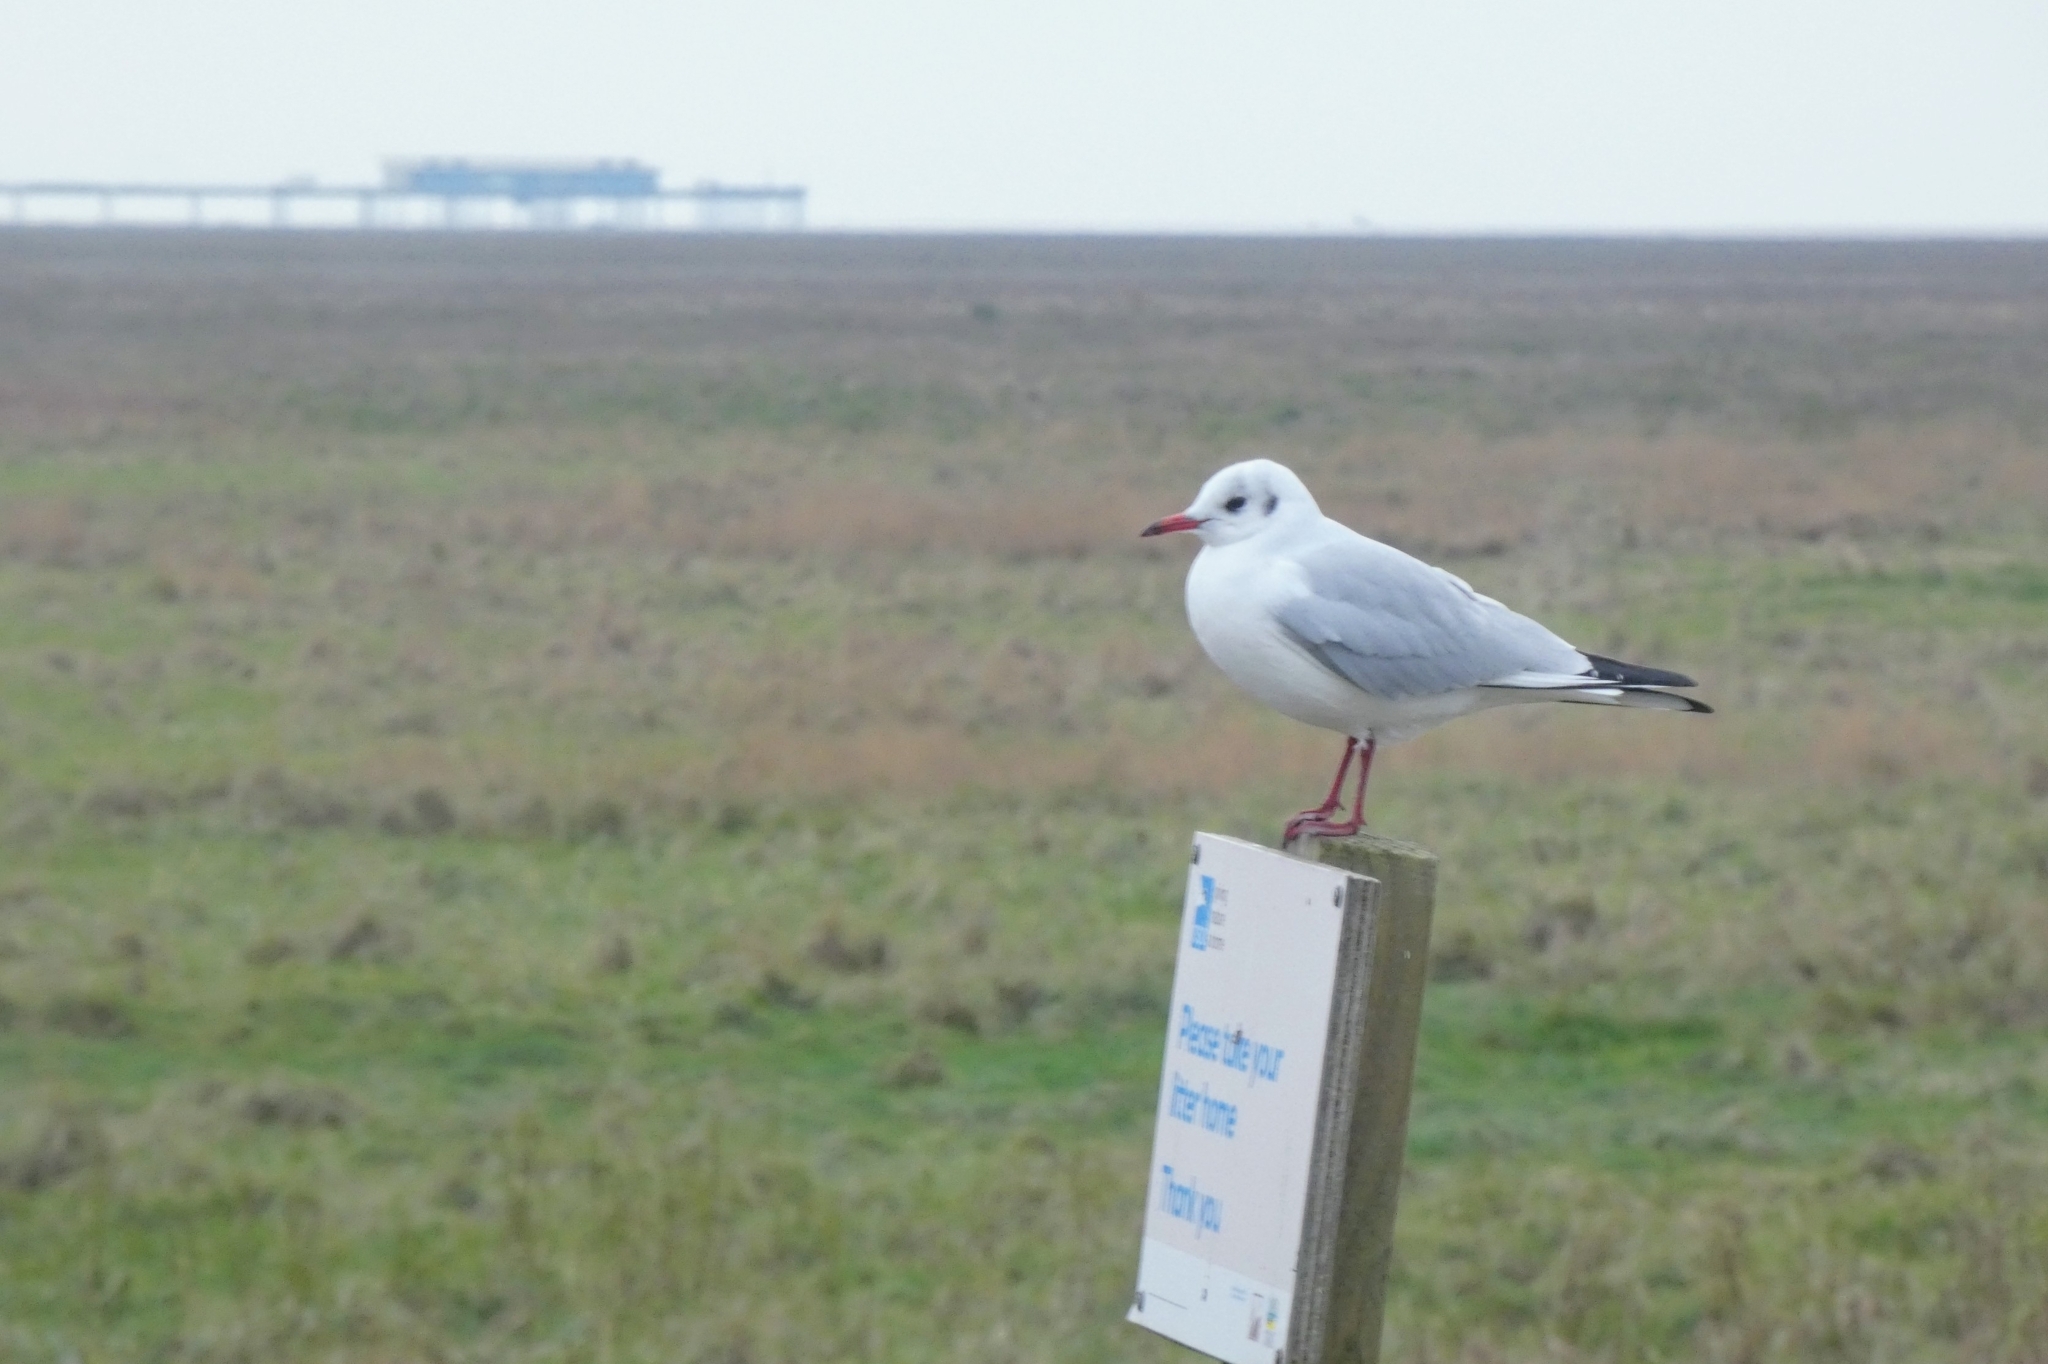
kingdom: Animalia
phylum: Chordata
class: Aves
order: Charadriiformes
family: Laridae
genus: Chroicocephalus
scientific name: Chroicocephalus ridibundus
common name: Black-headed gull
